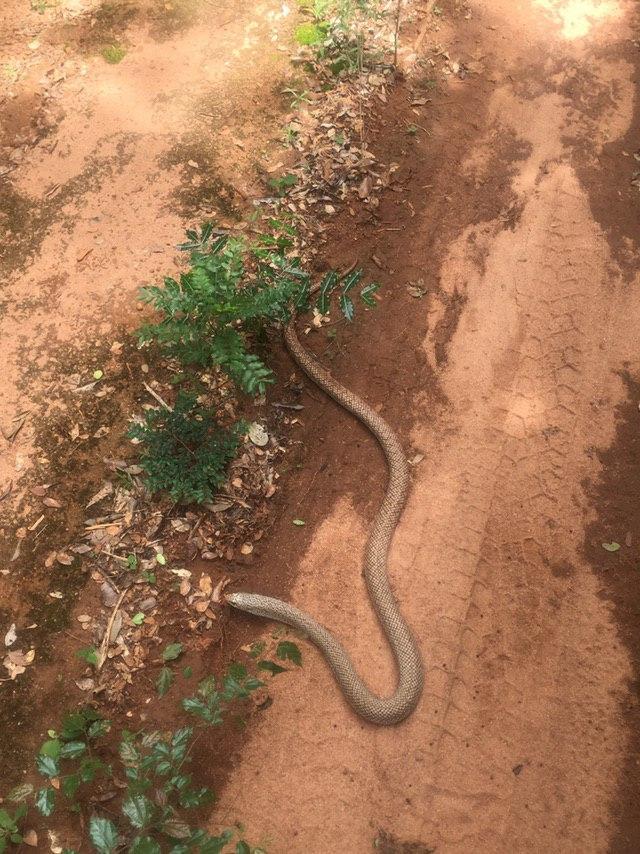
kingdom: Animalia
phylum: Chordata
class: Squamata
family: Pseudoxyrhophiidae
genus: Leioheterodon
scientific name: Leioheterodon geayi
